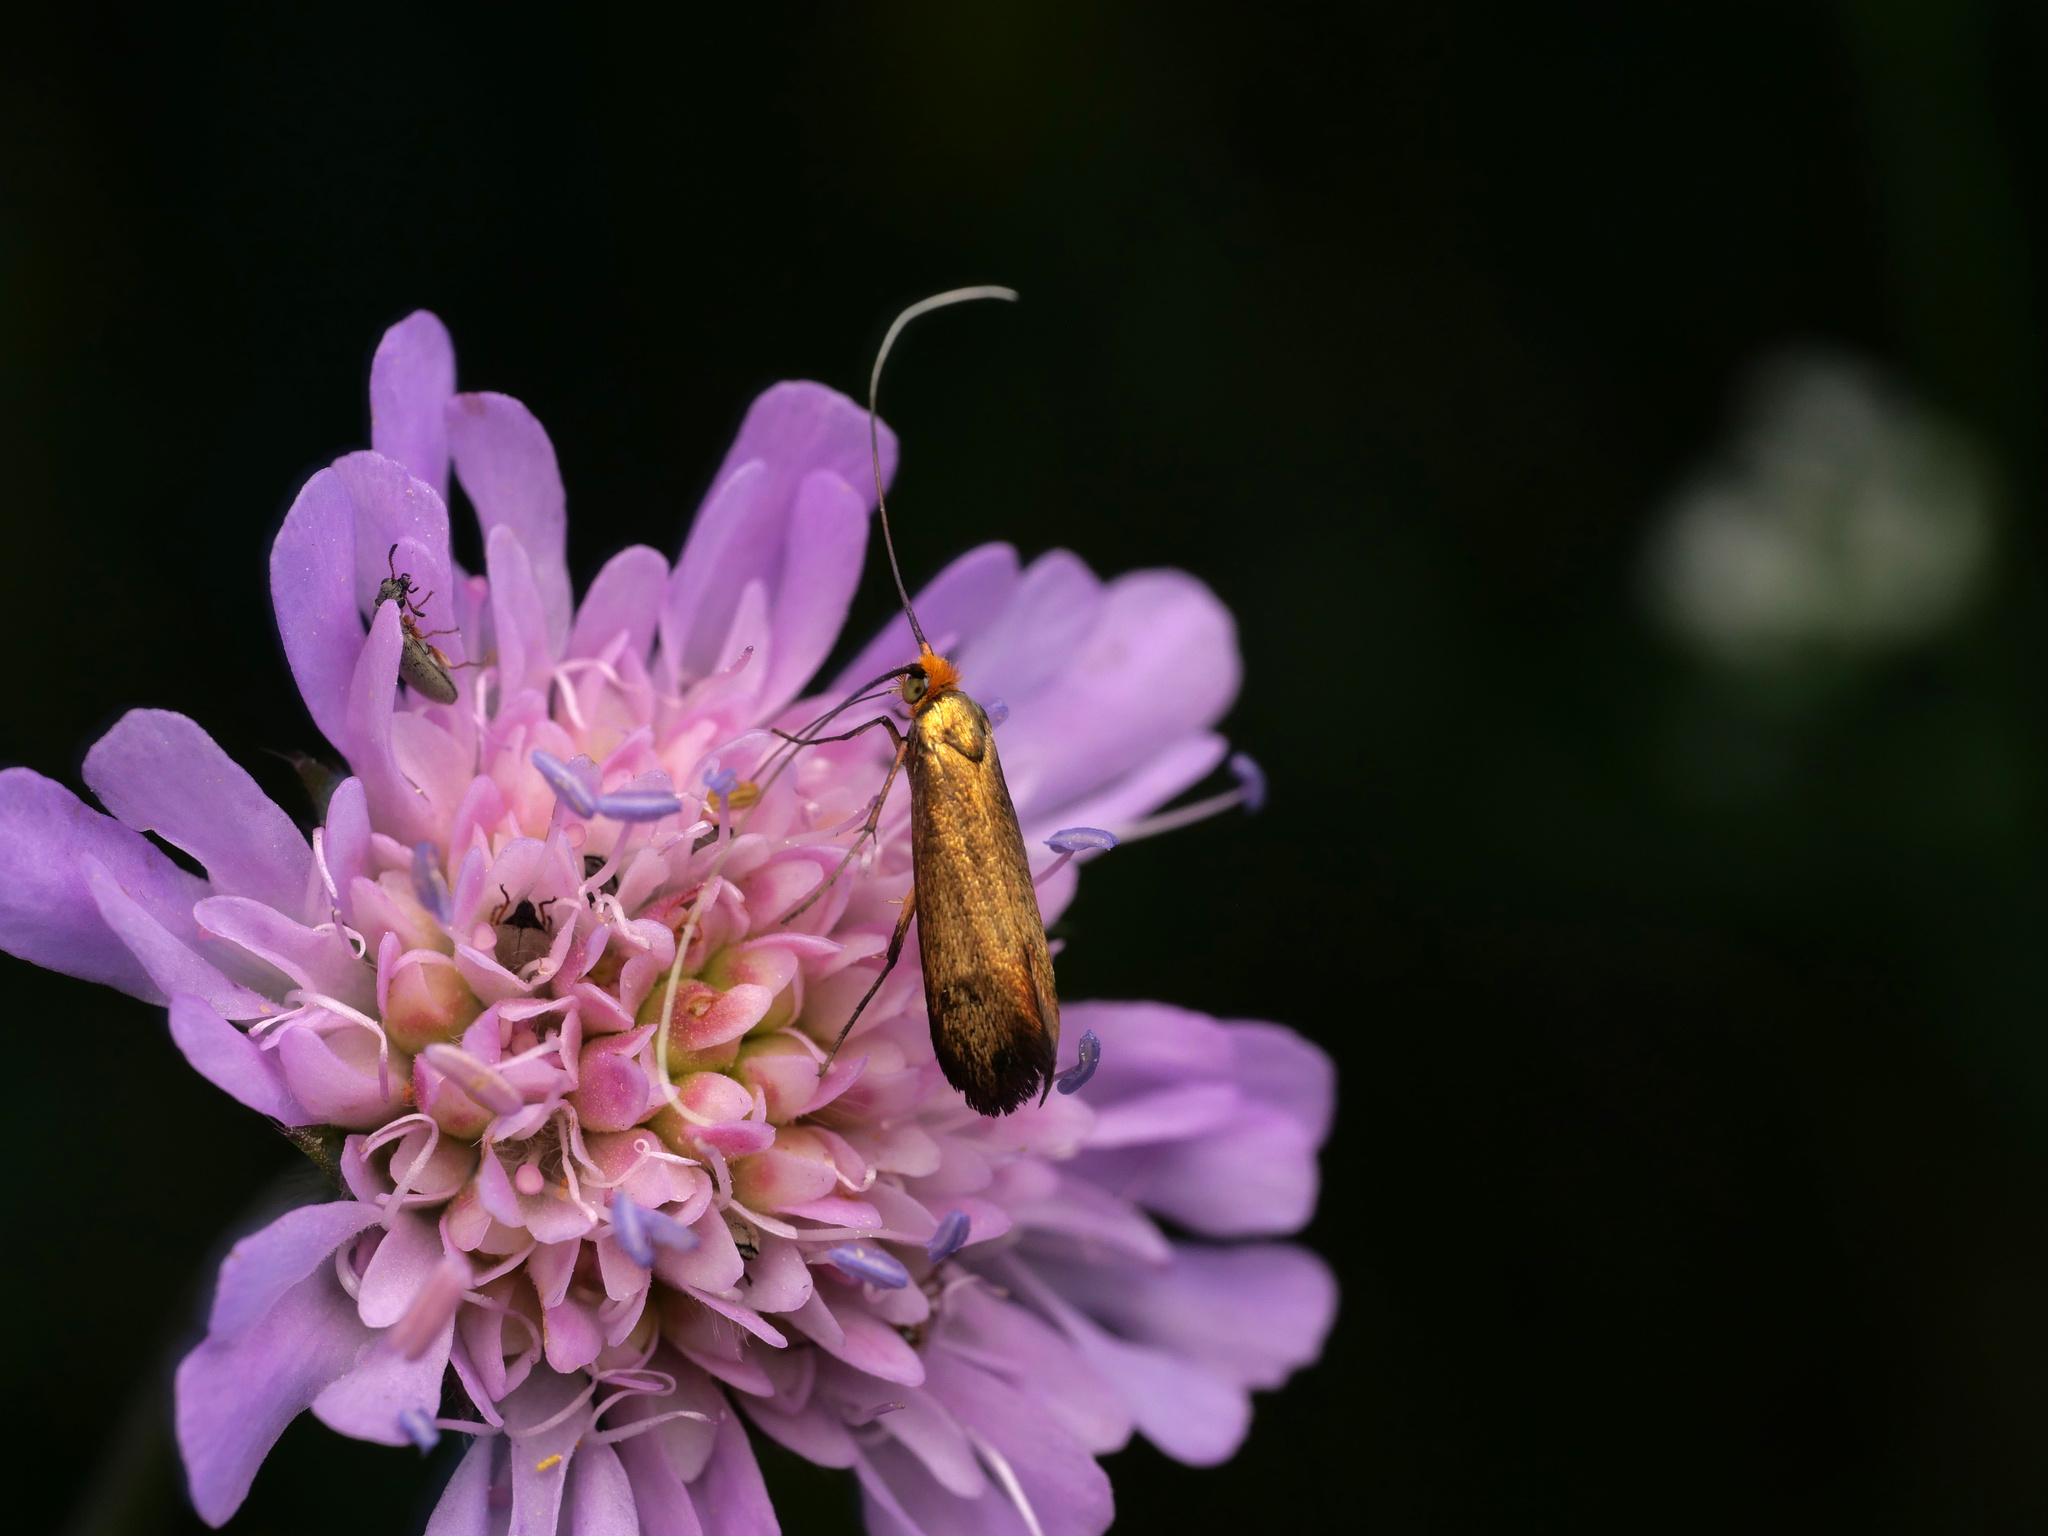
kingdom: Animalia
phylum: Arthropoda
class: Insecta
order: Lepidoptera
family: Adelidae
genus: Nemophora
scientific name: Nemophora metallica
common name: Brassy long-horn
